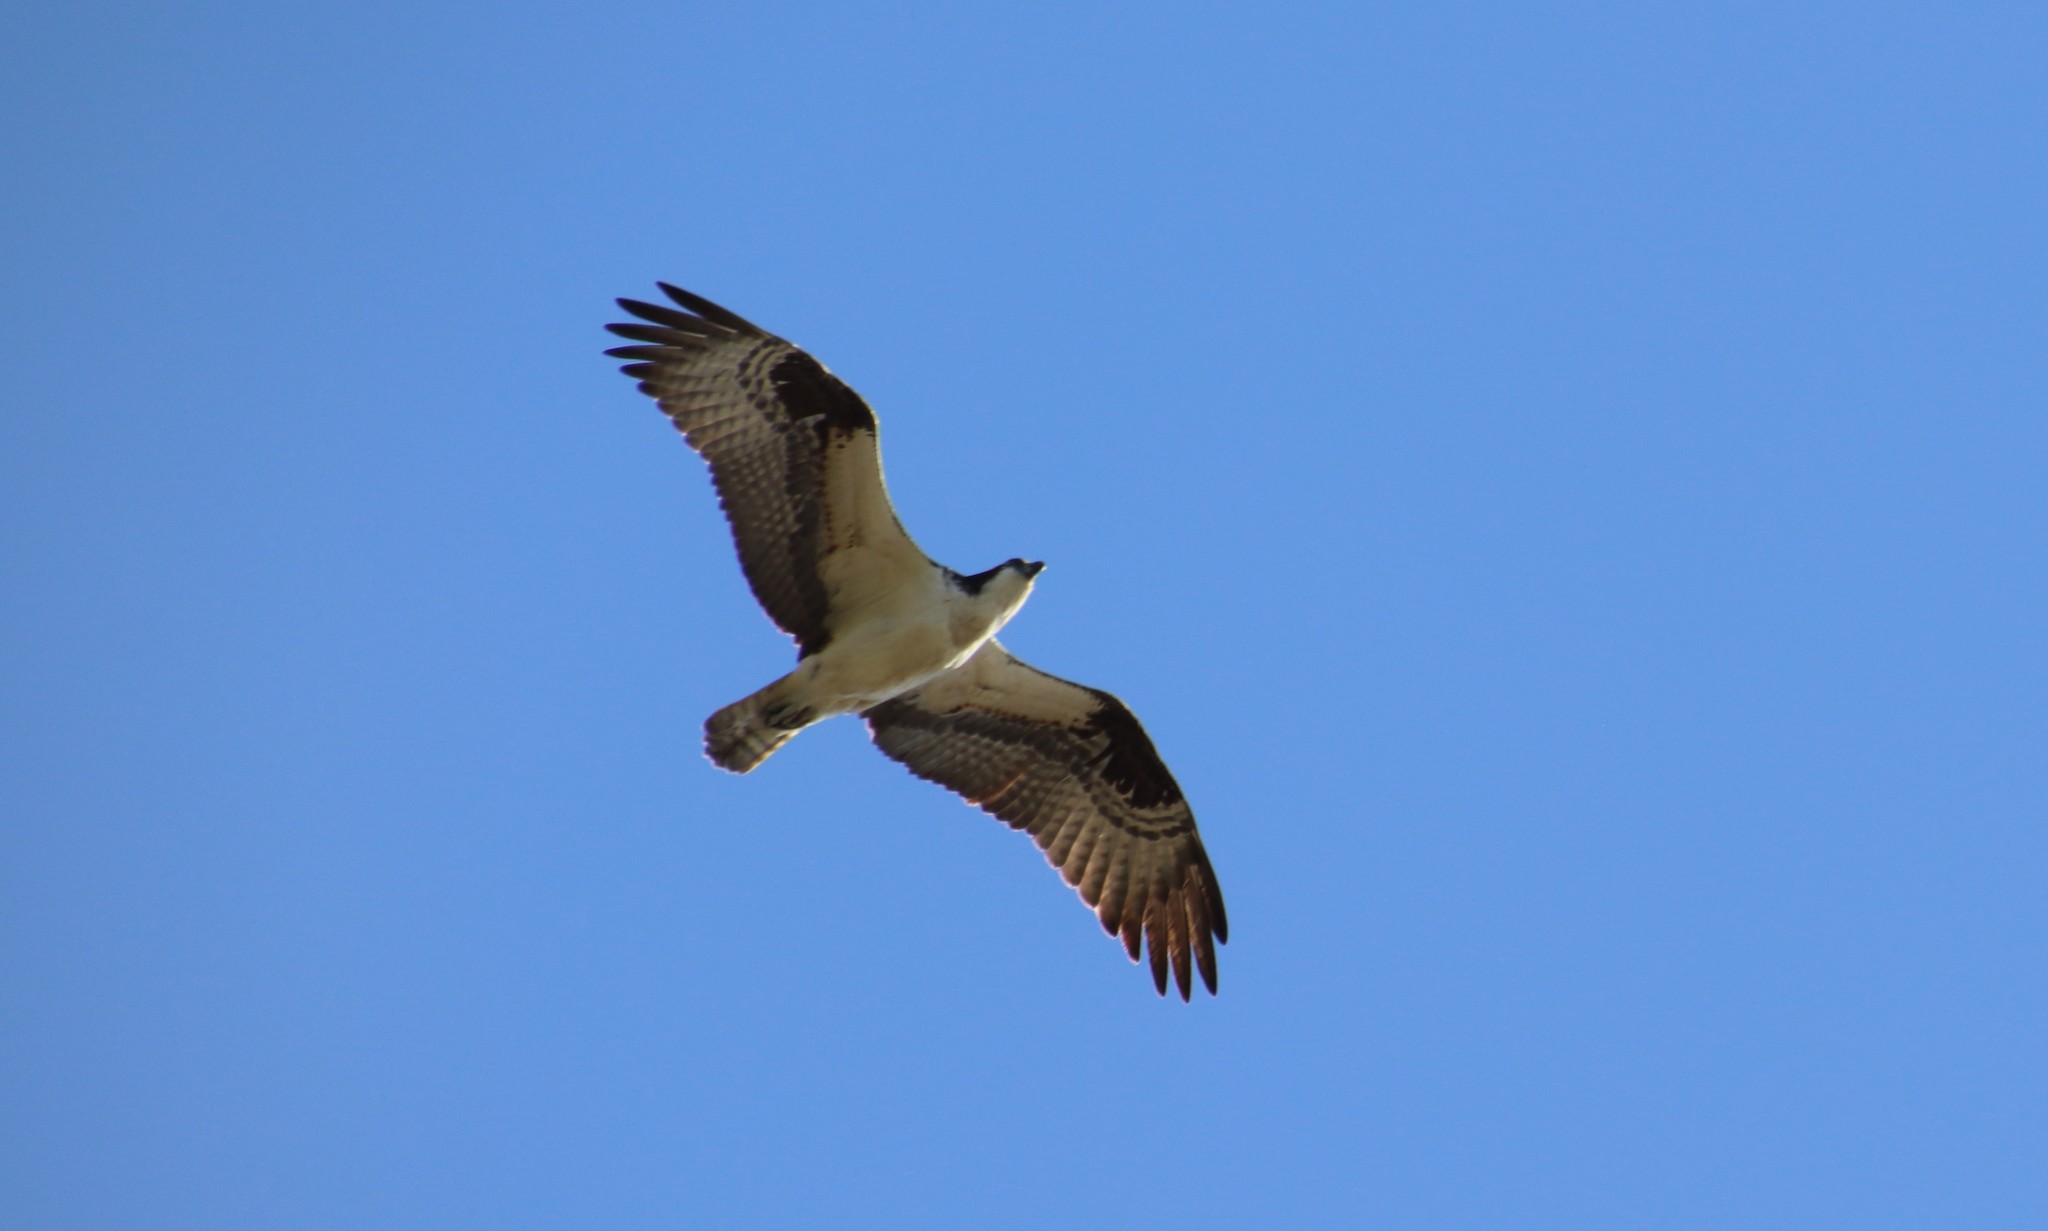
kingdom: Animalia
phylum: Chordata
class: Aves
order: Accipitriformes
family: Pandionidae
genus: Pandion
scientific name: Pandion haliaetus
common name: Osprey
